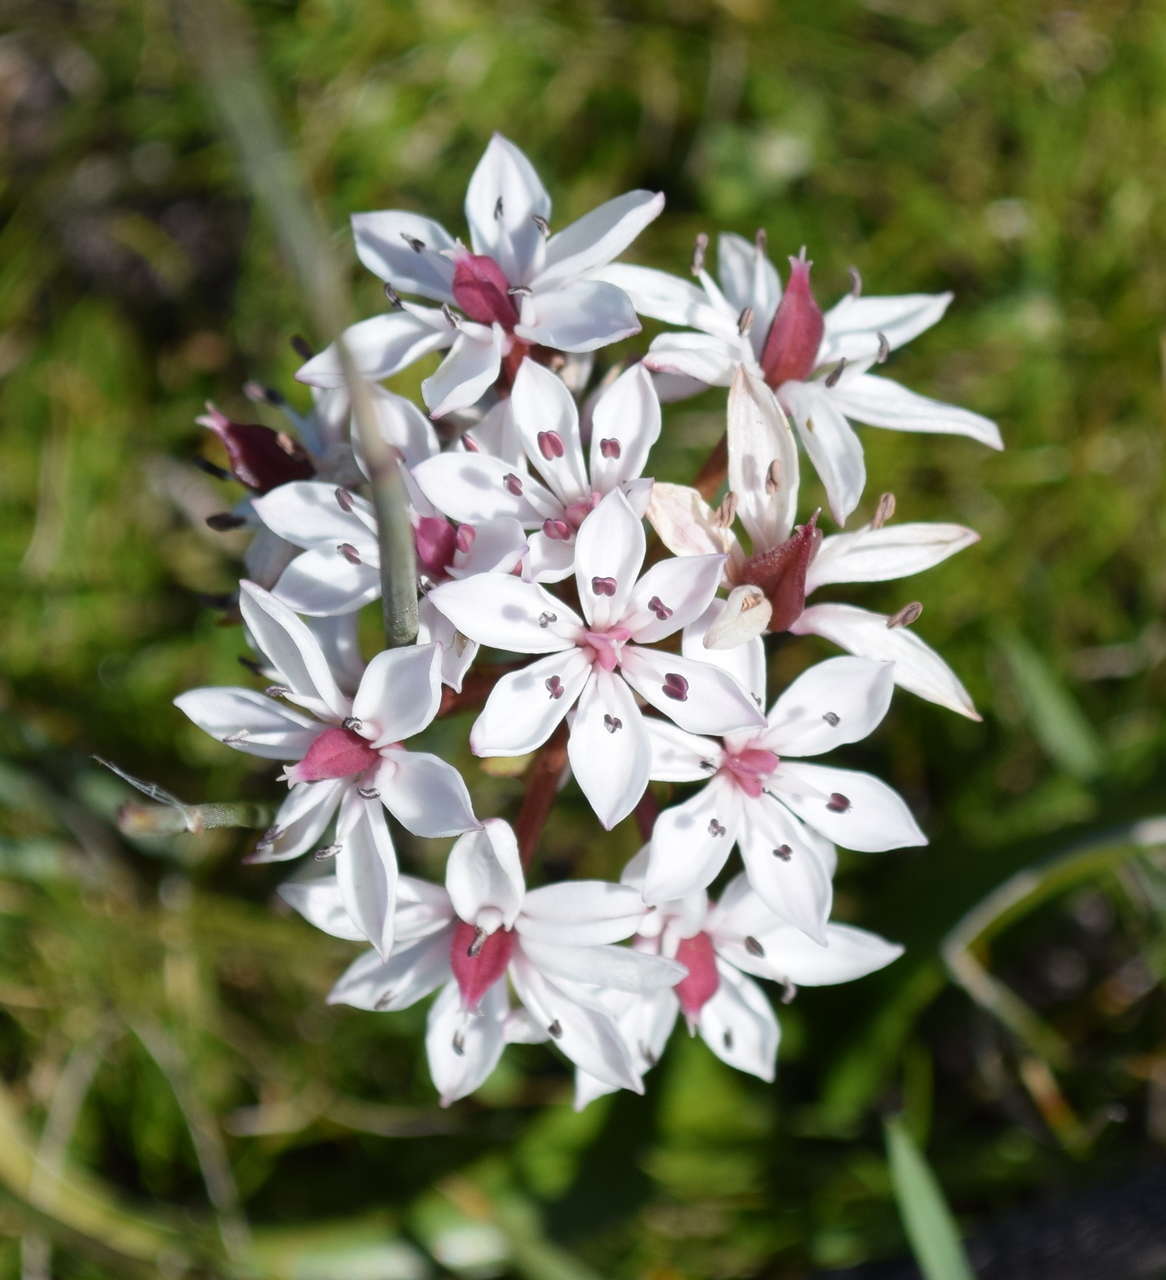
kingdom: Plantae
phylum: Tracheophyta
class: Liliopsida
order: Liliales
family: Colchicaceae
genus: Burchardia
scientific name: Burchardia umbellata
